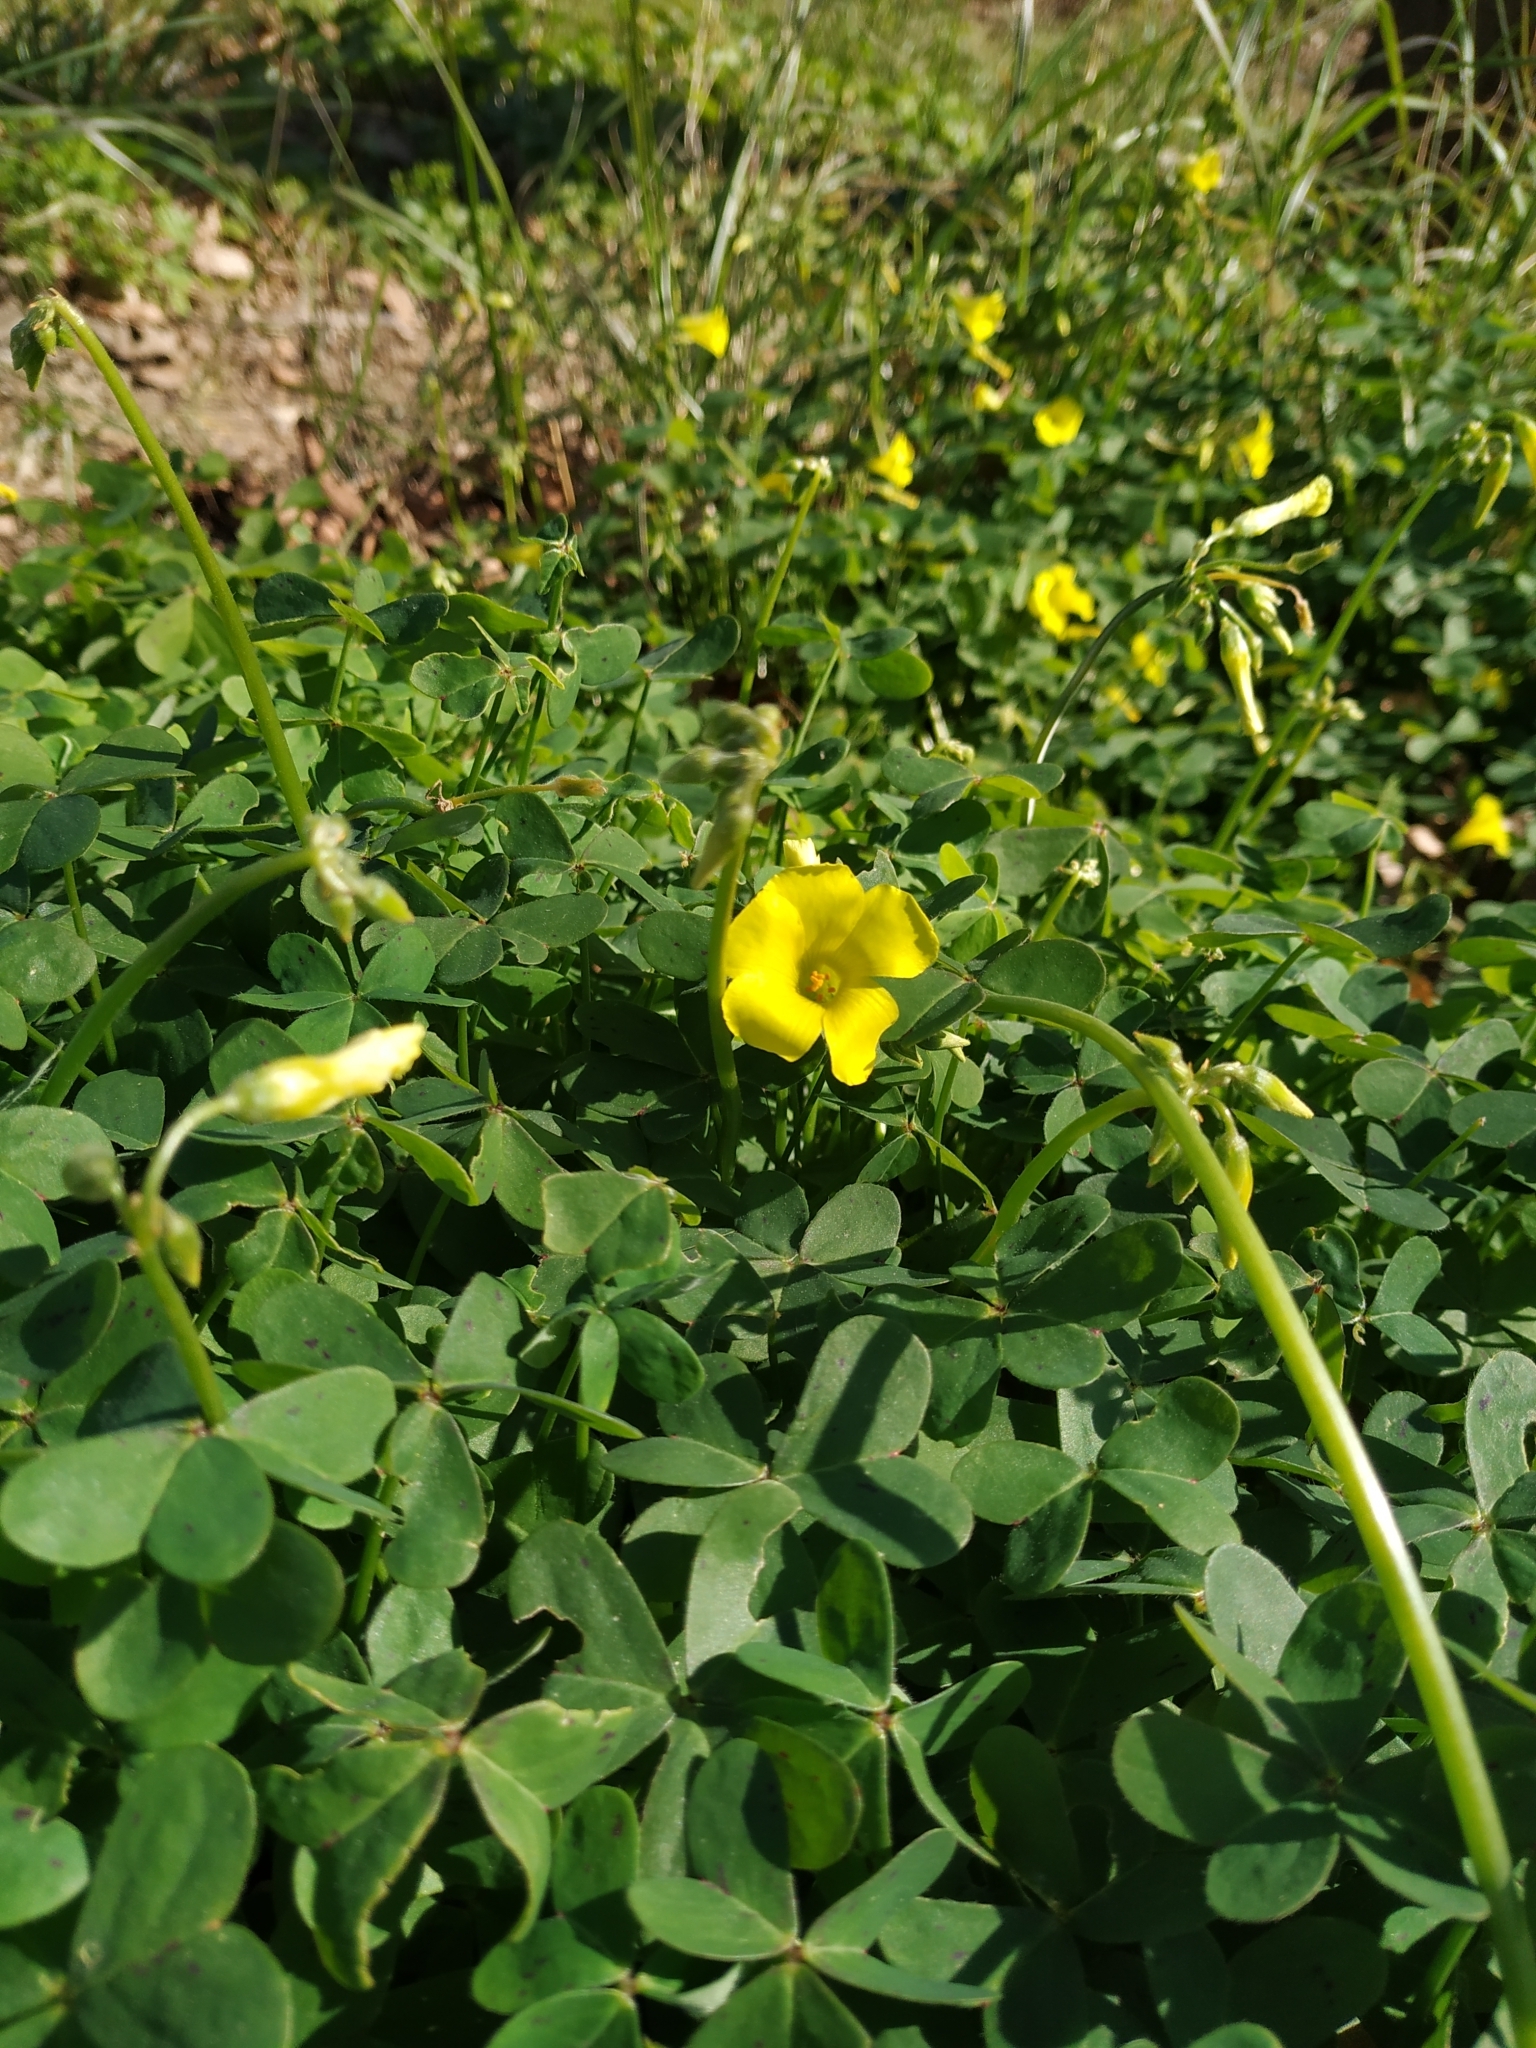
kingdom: Plantae
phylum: Tracheophyta
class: Magnoliopsida
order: Oxalidales
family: Oxalidaceae
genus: Oxalis
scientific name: Oxalis pes-caprae
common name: Bermuda-buttercup
